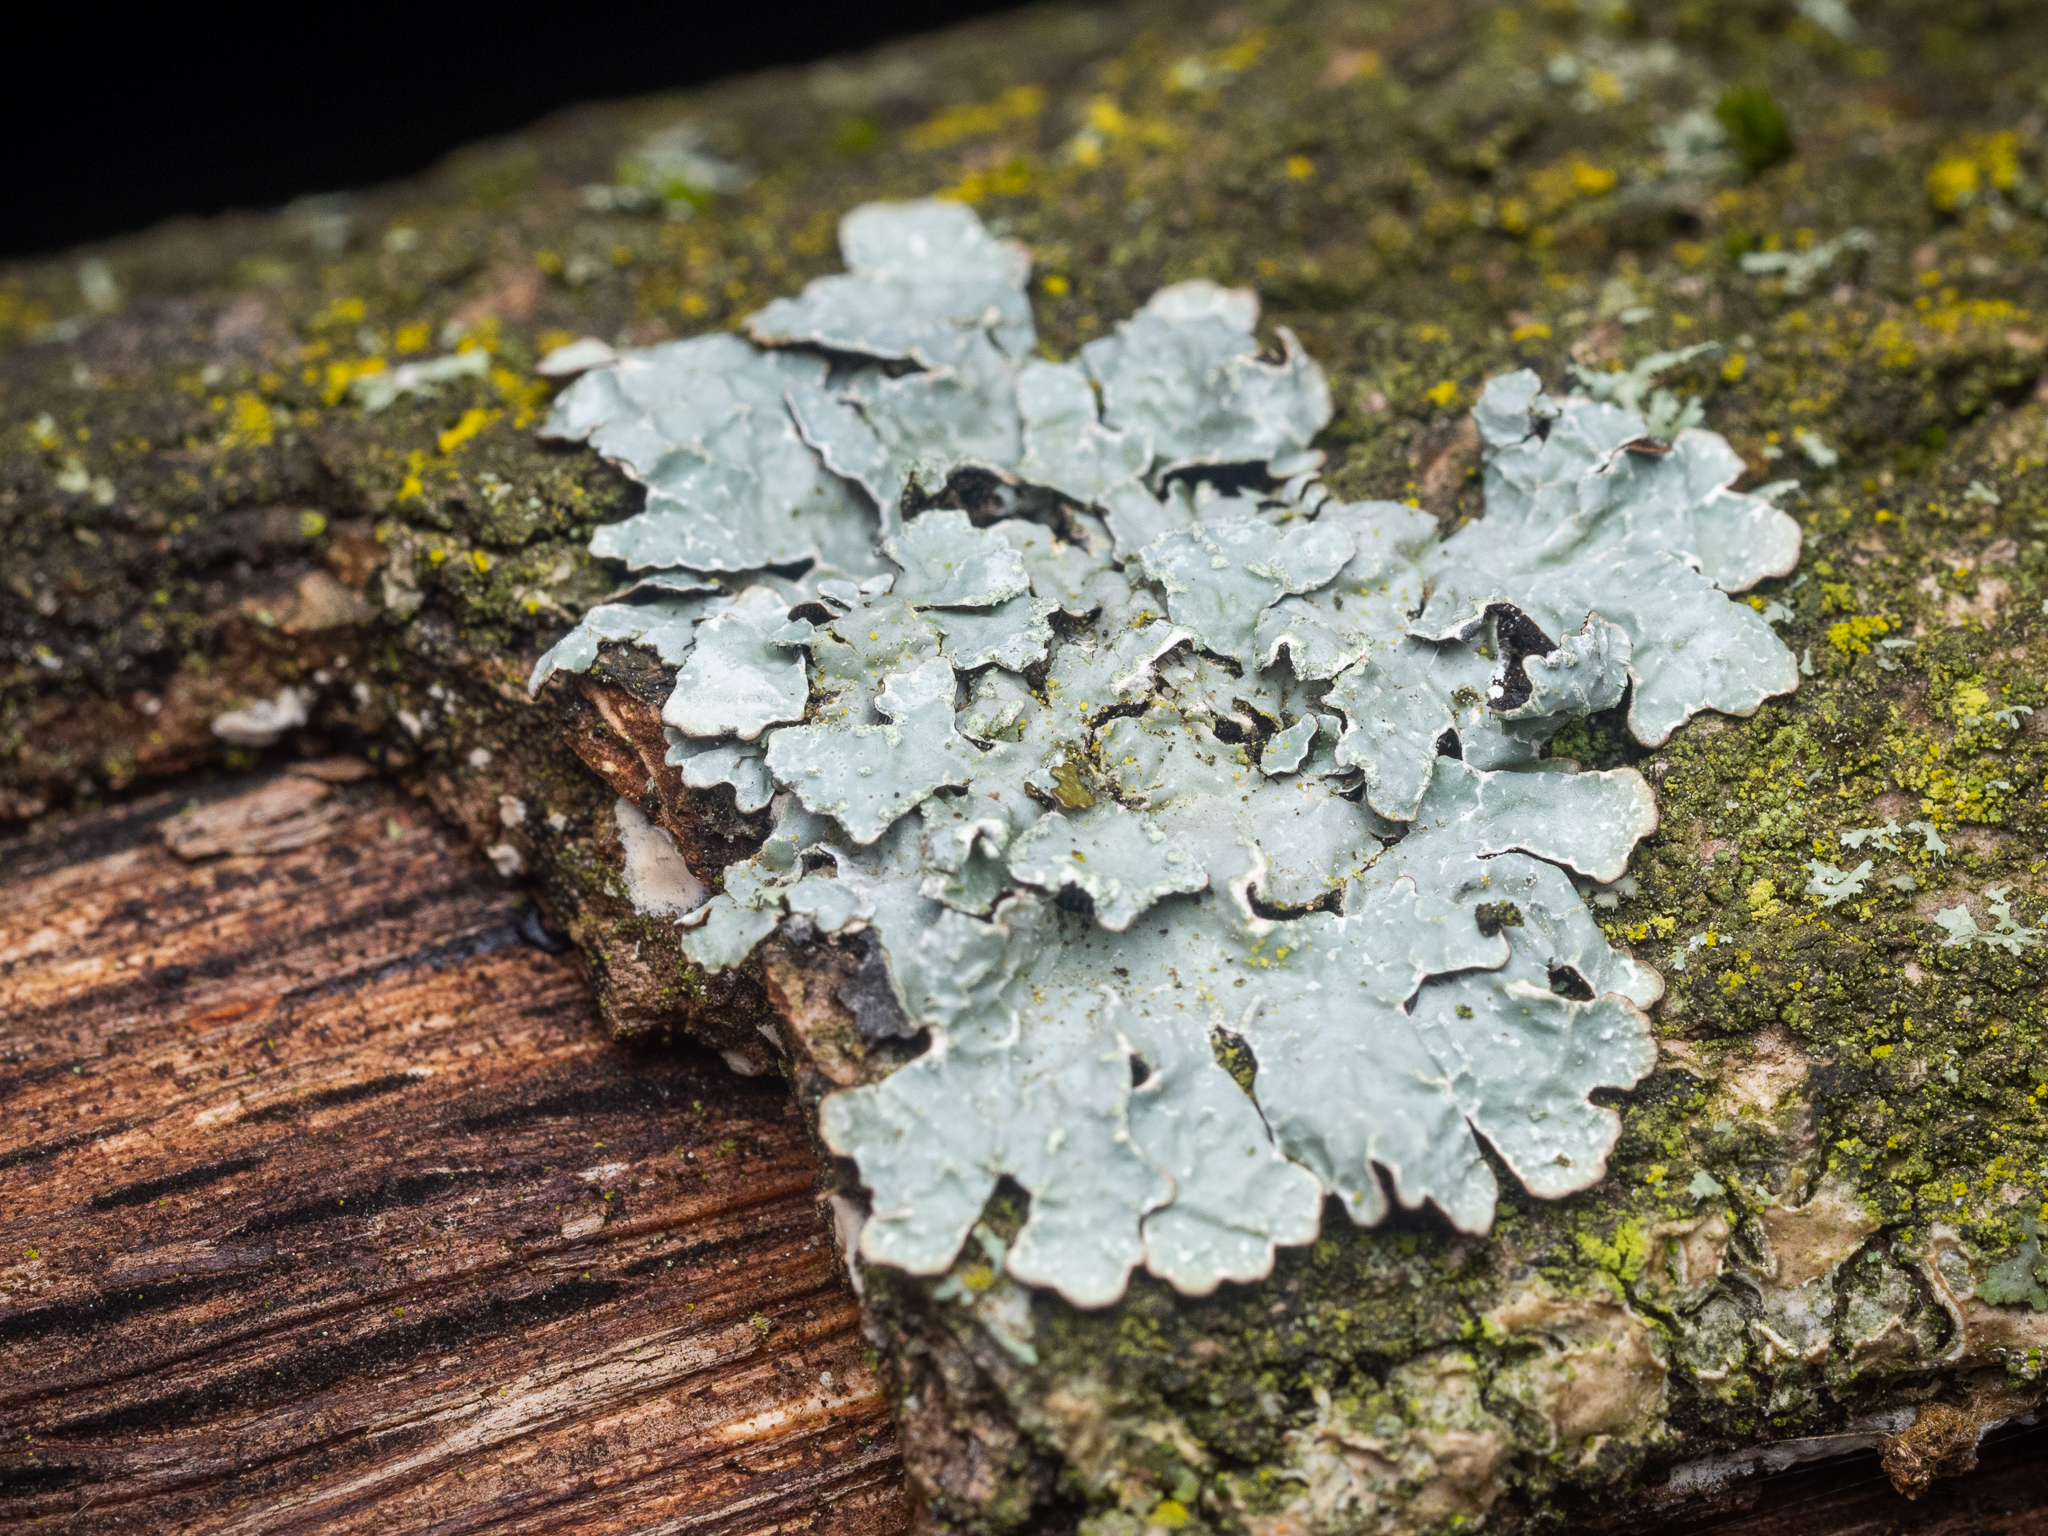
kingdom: Fungi
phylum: Ascomycota
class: Lecanoromycetes
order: Lecanorales
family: Parmeliaceae
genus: Parmelia
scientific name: Parmelia sulcata
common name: Netted shield lichen
